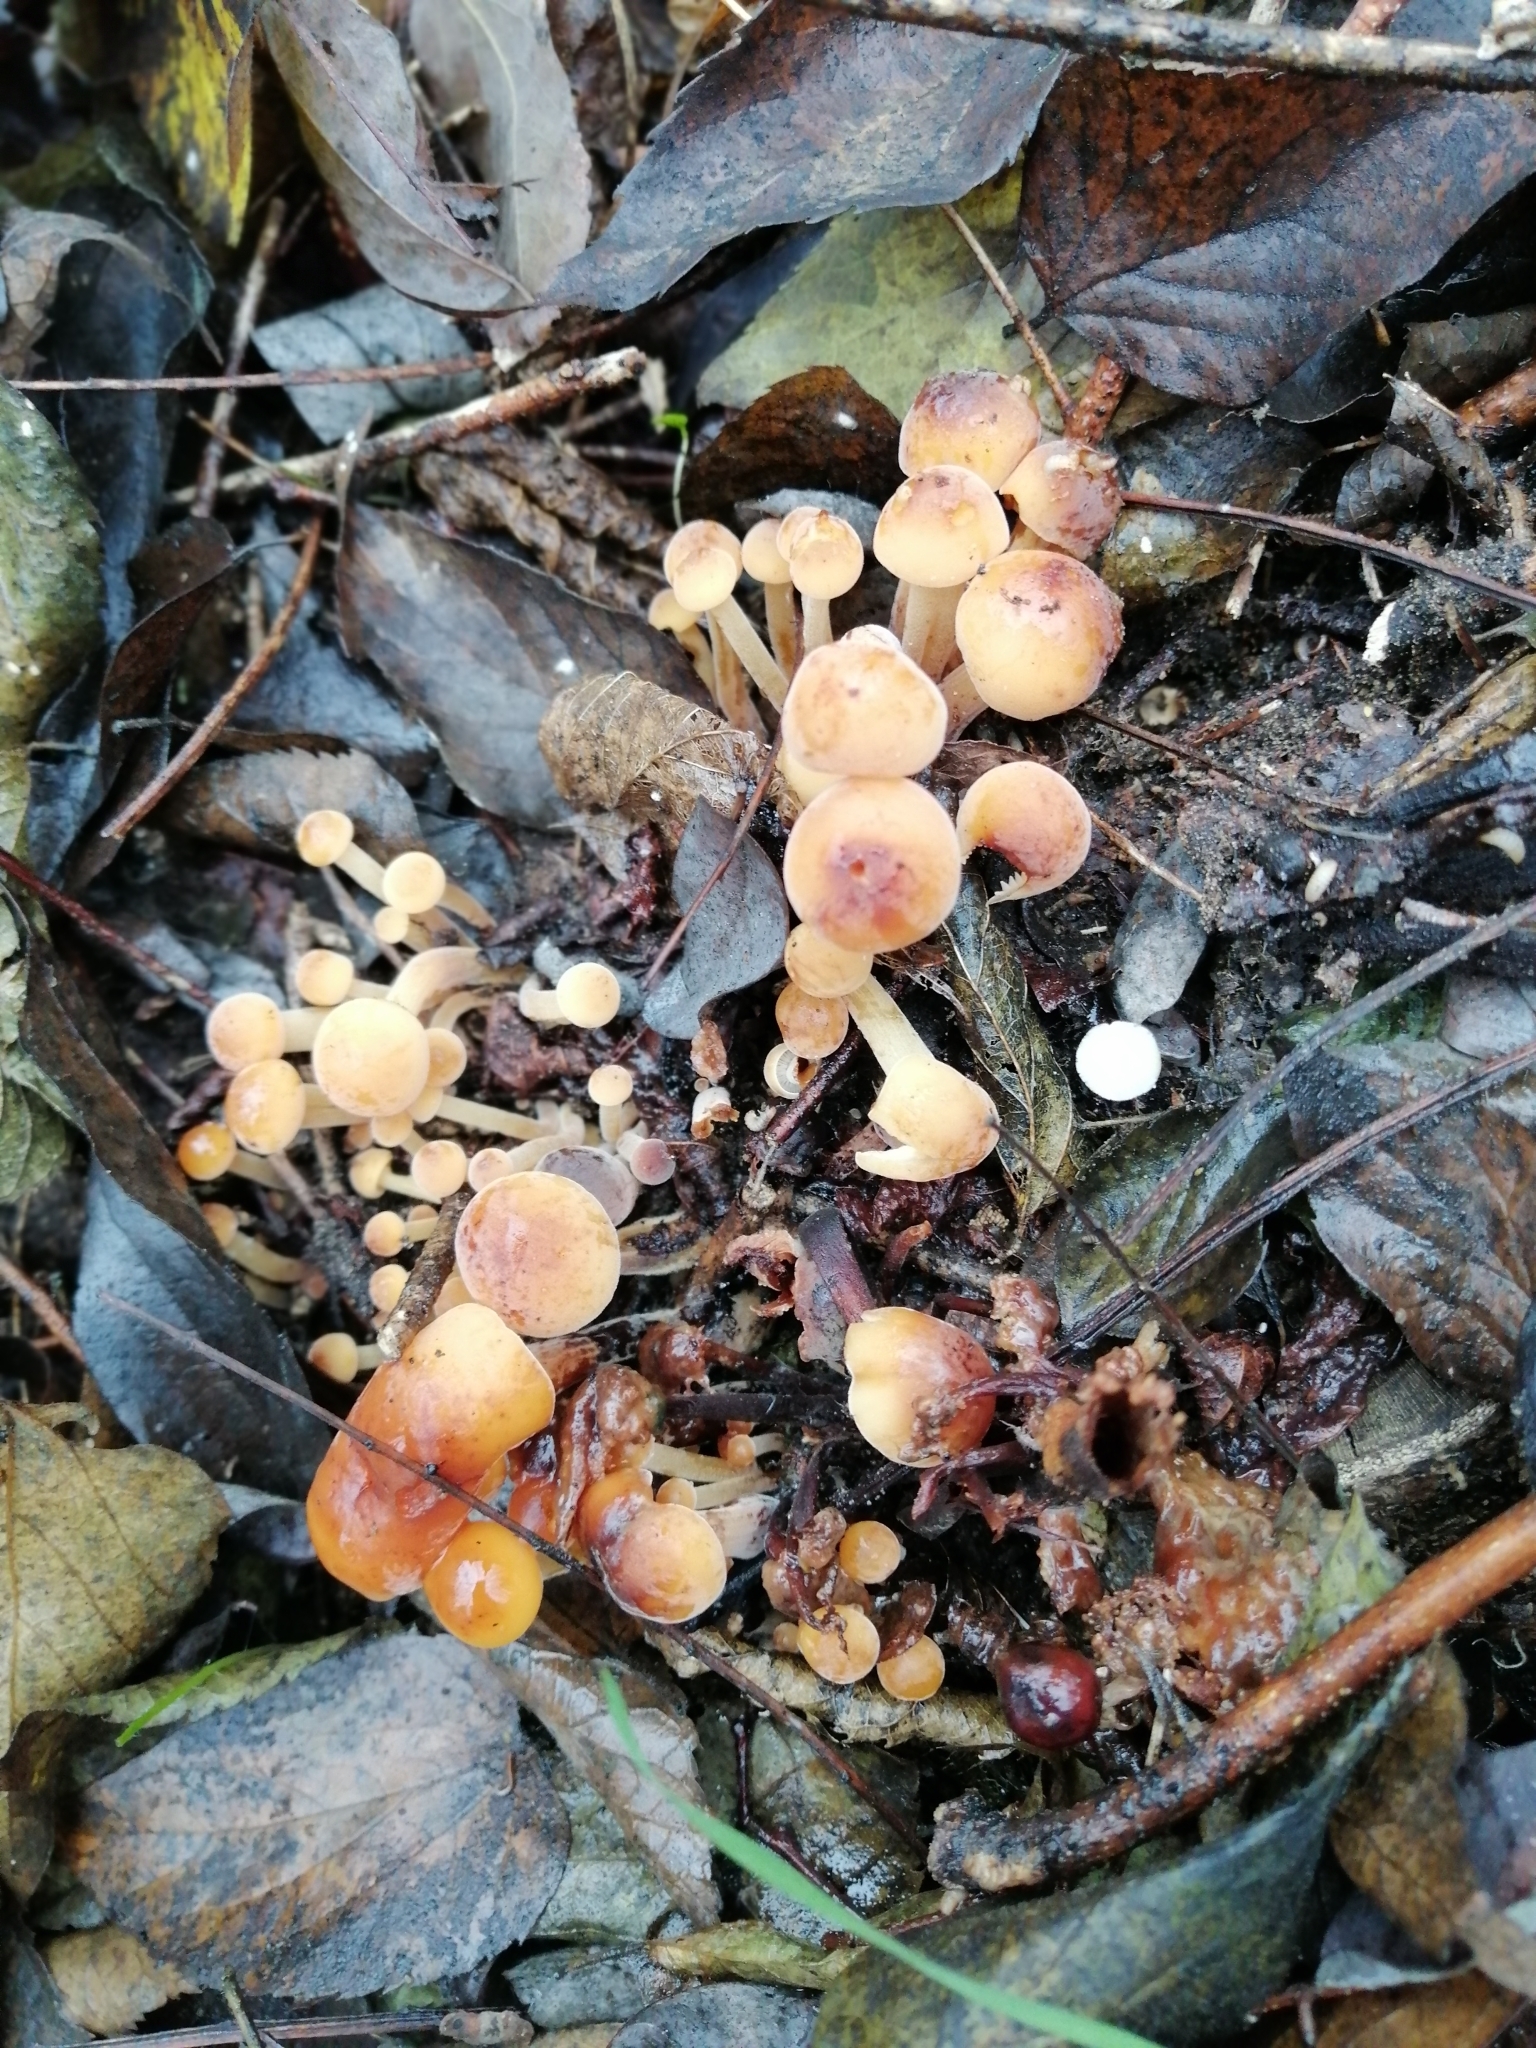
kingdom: Fungi
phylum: Basidiomycota
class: Agaricomycetes
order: Agaricales
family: Physalacriaceae
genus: Flammulina
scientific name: Flammulina
